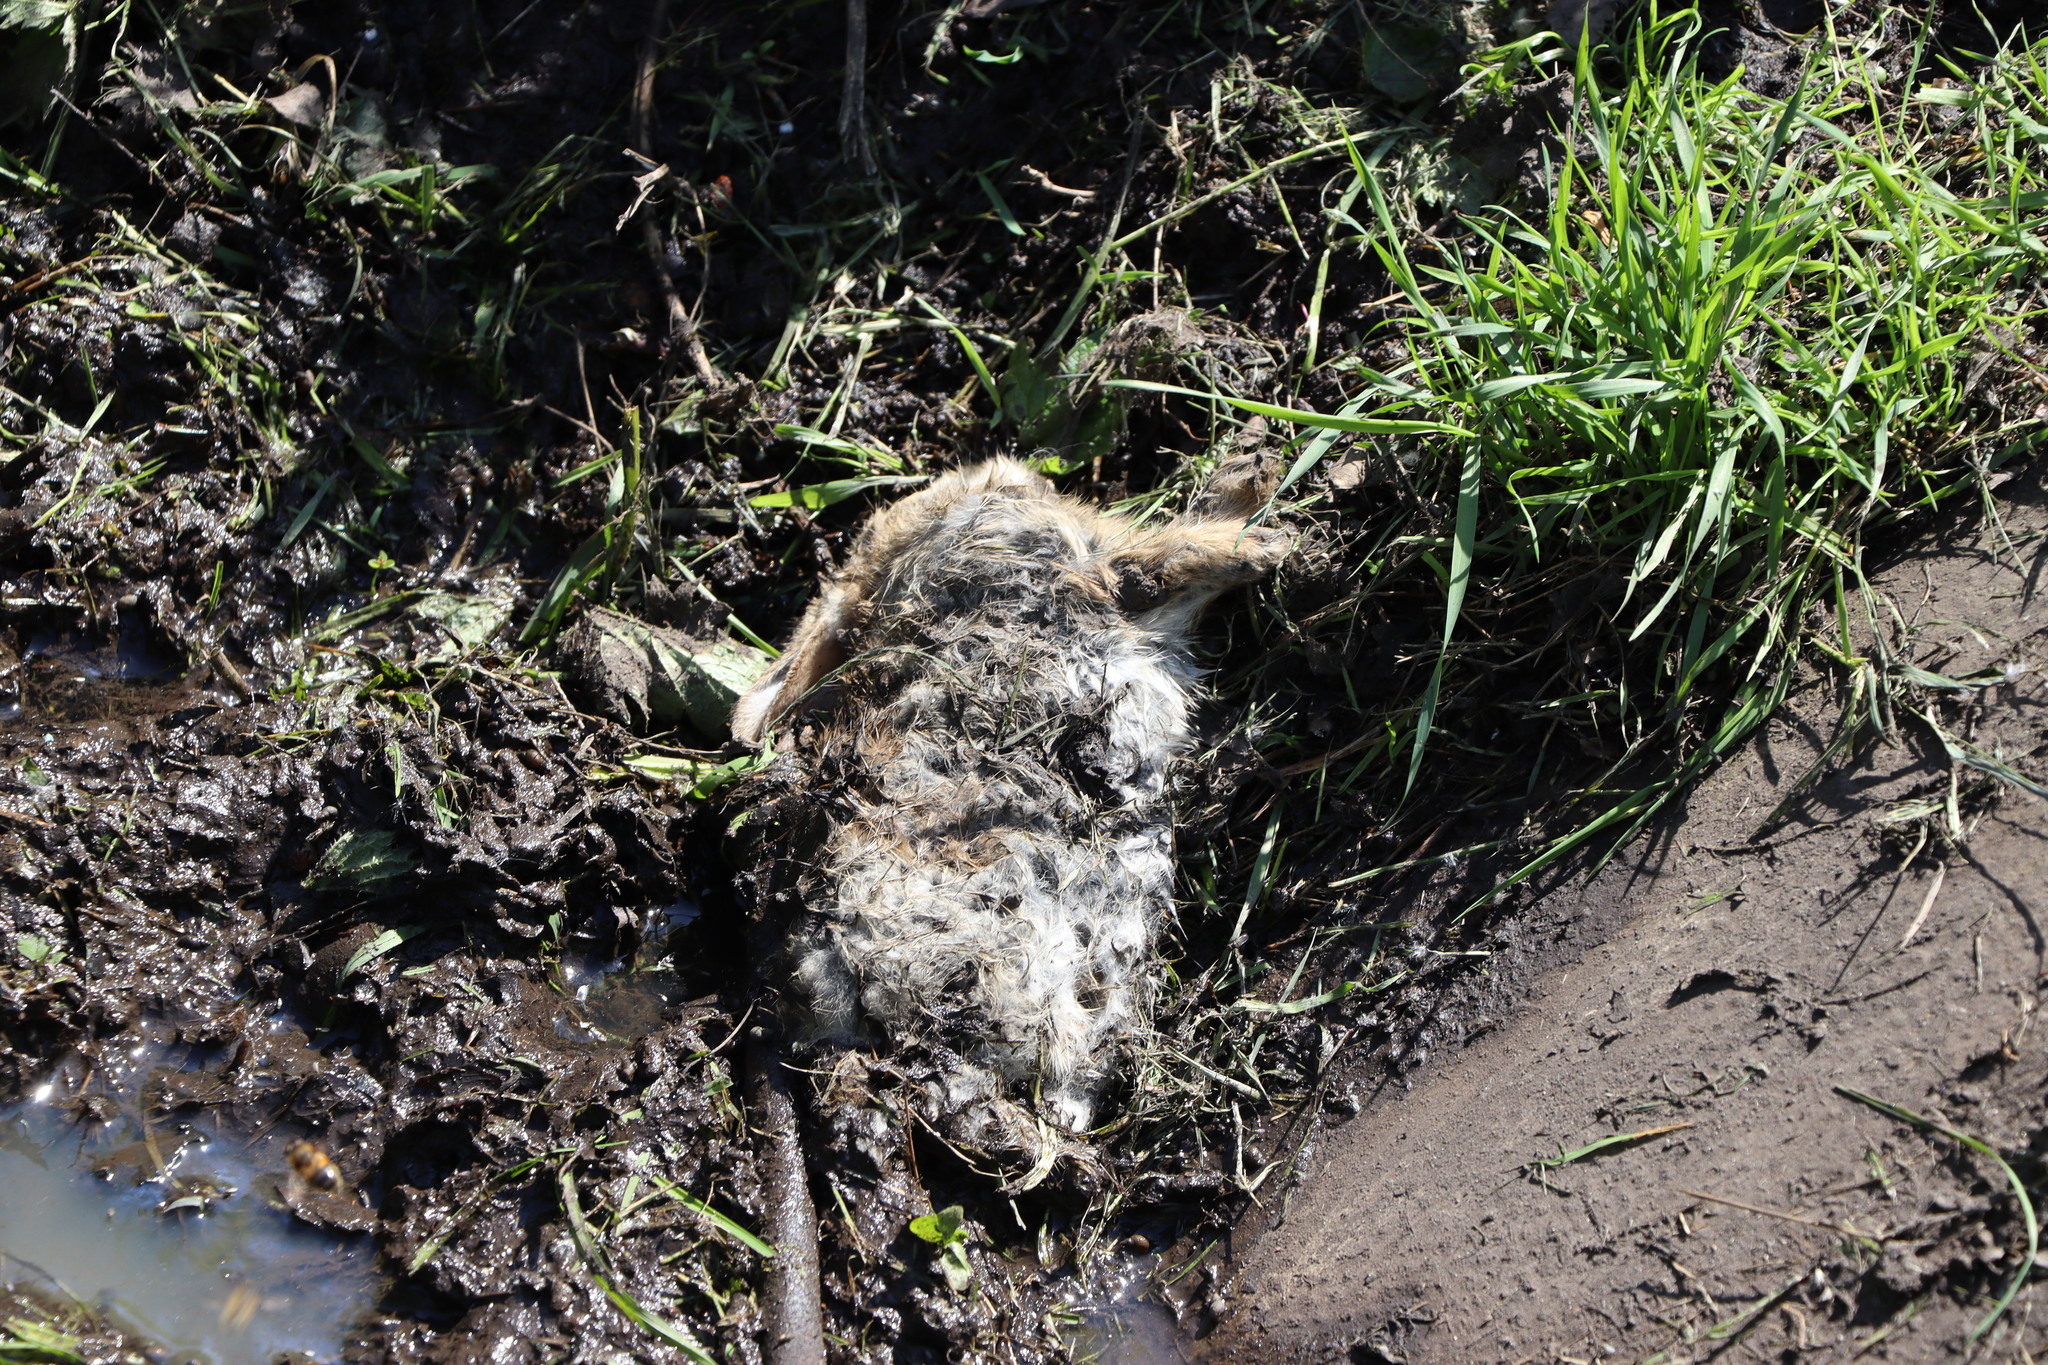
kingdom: Animalia
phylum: Chordata
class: Mammalia
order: Lagomorpha
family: Leporidae
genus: Oryctolagus
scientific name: Oryctolagus cuniculus
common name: European rabbit
